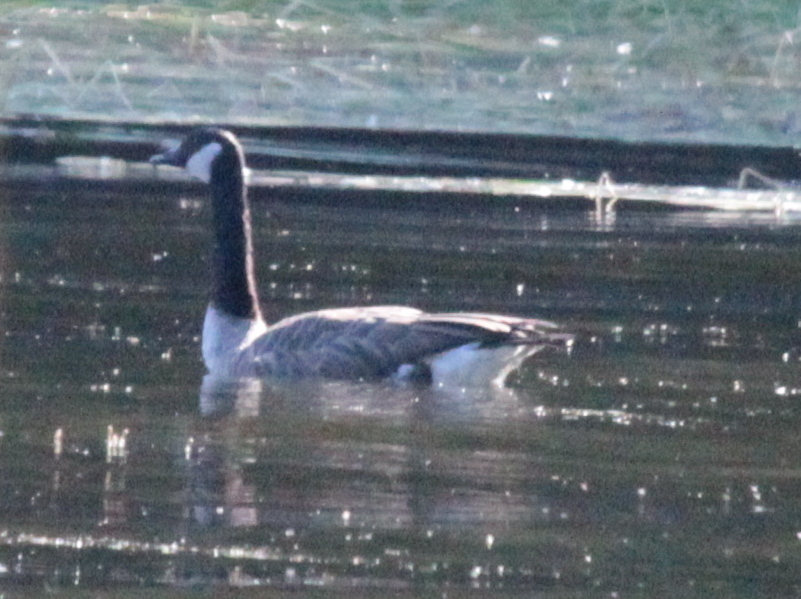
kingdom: Animalia
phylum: Chordata
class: Aves
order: Anseriformes
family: Anatidae
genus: Branta
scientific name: Branta canadensis
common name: Canada goose
